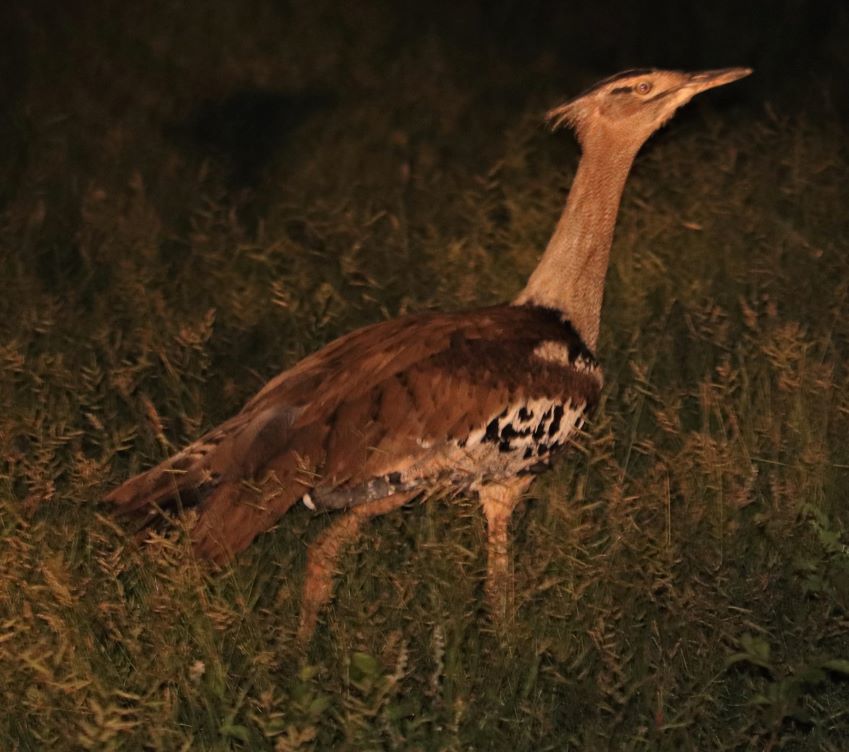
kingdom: Animalia
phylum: Chordata
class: Aves
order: Otidiformes
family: Otididae
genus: Ardeotis
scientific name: Ardeotis kori
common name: Kori bustard
